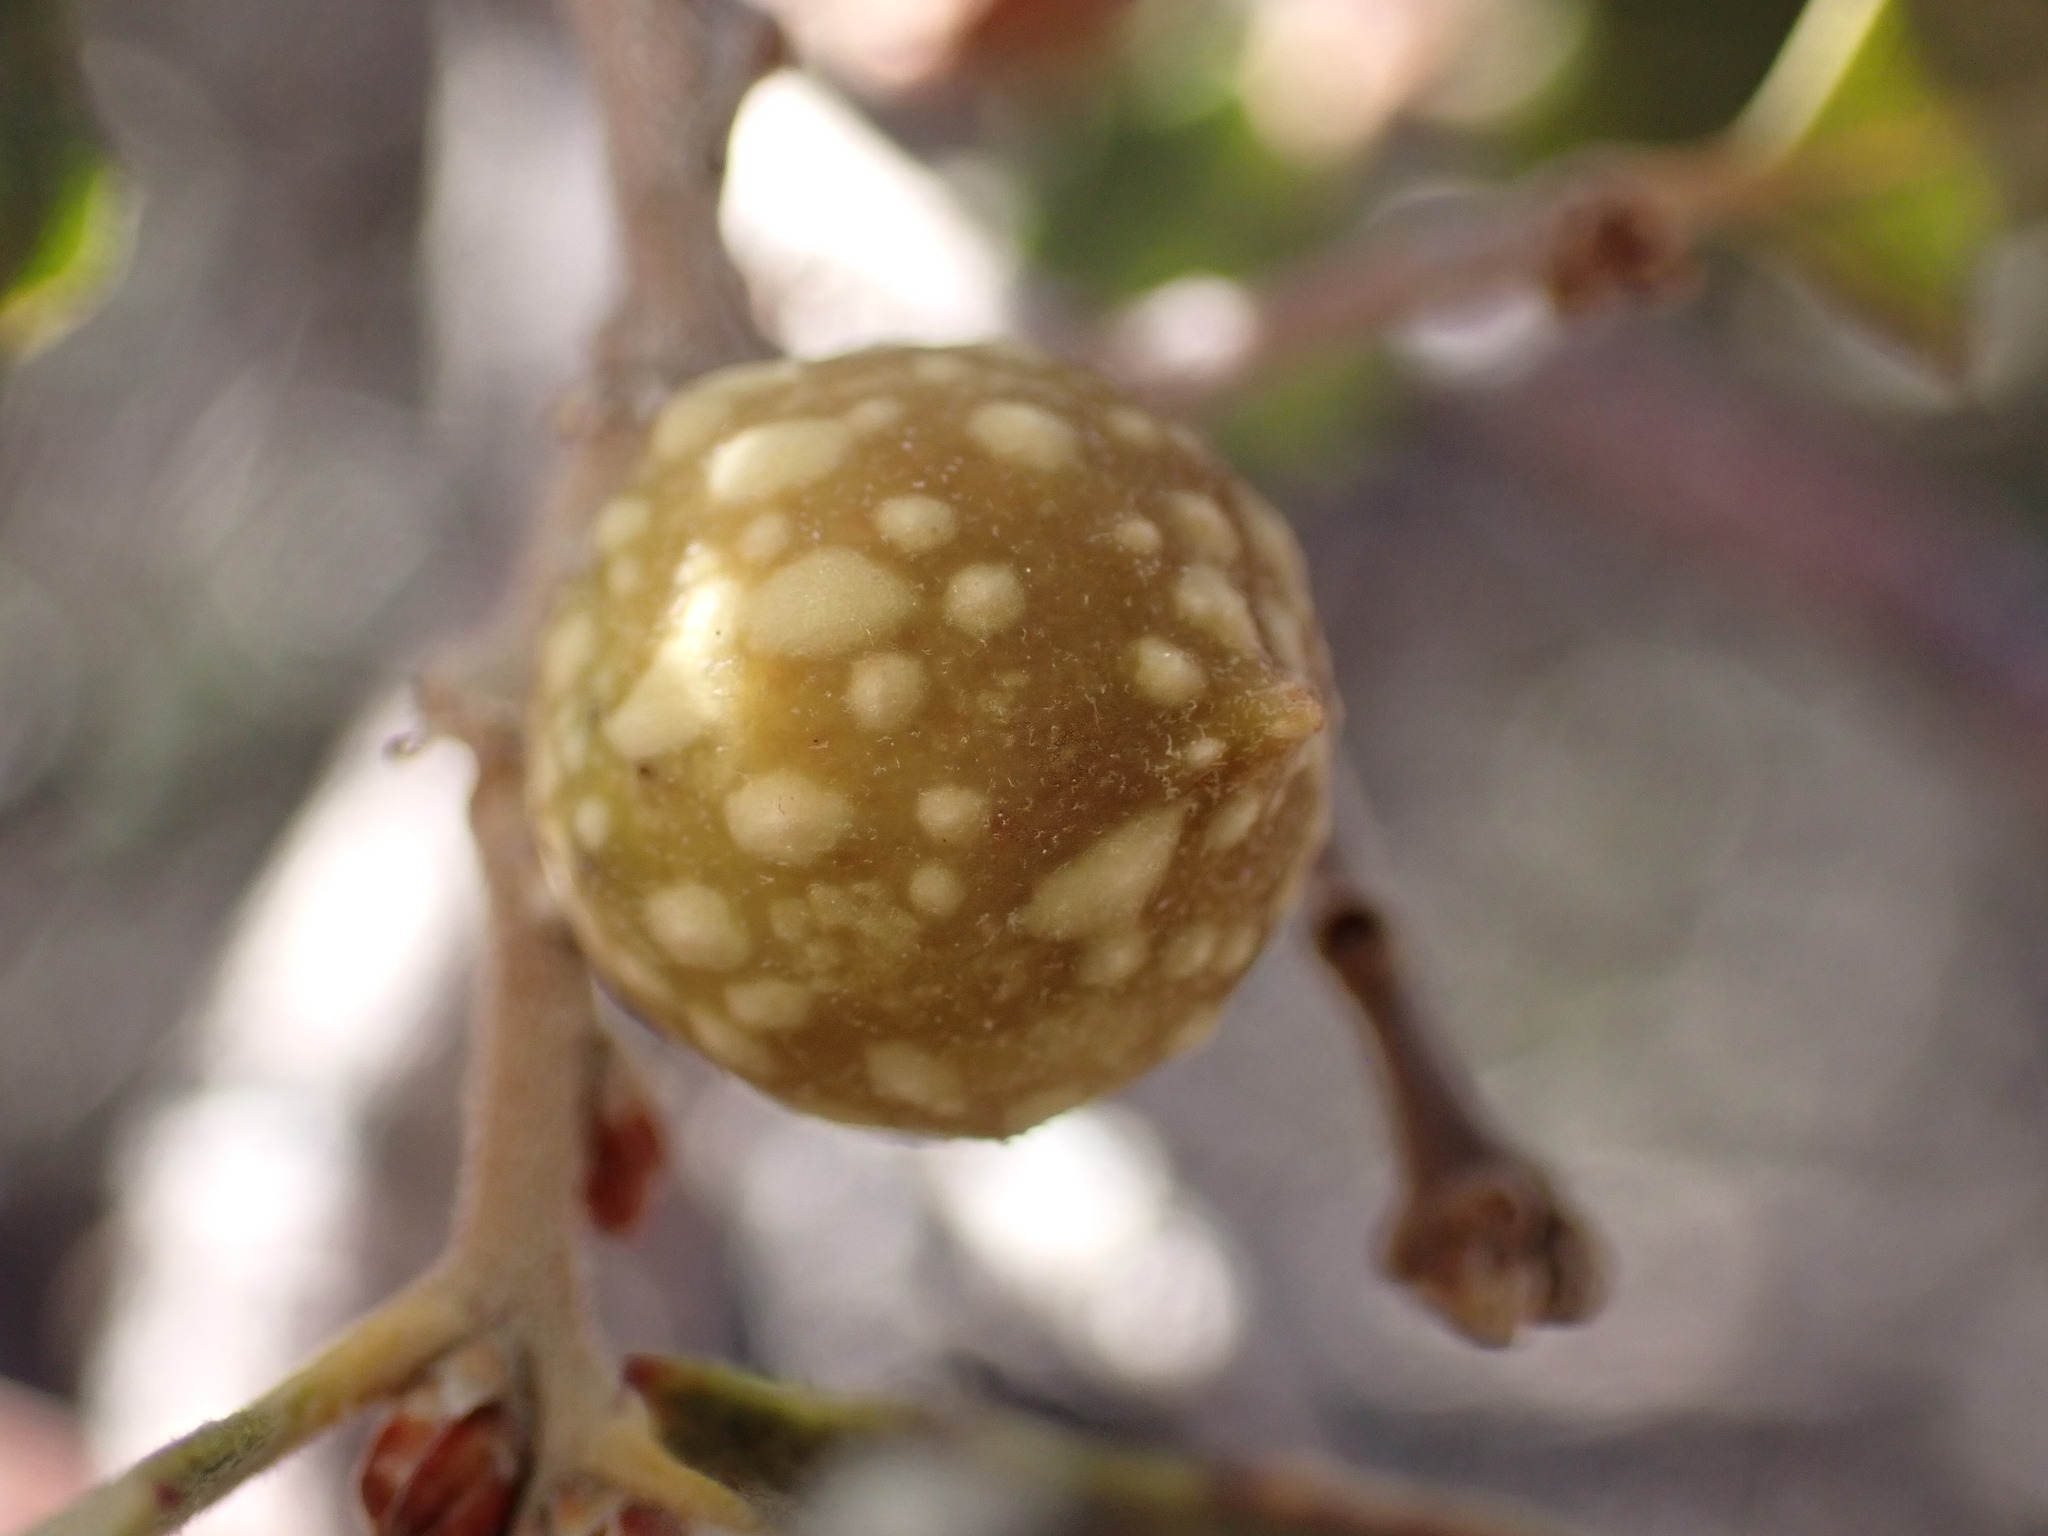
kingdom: Animalia
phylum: Arthropoda
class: Insecta
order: Hymenoptera
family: Cynipidae
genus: Burnettweldia
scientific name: Burnettweldia
